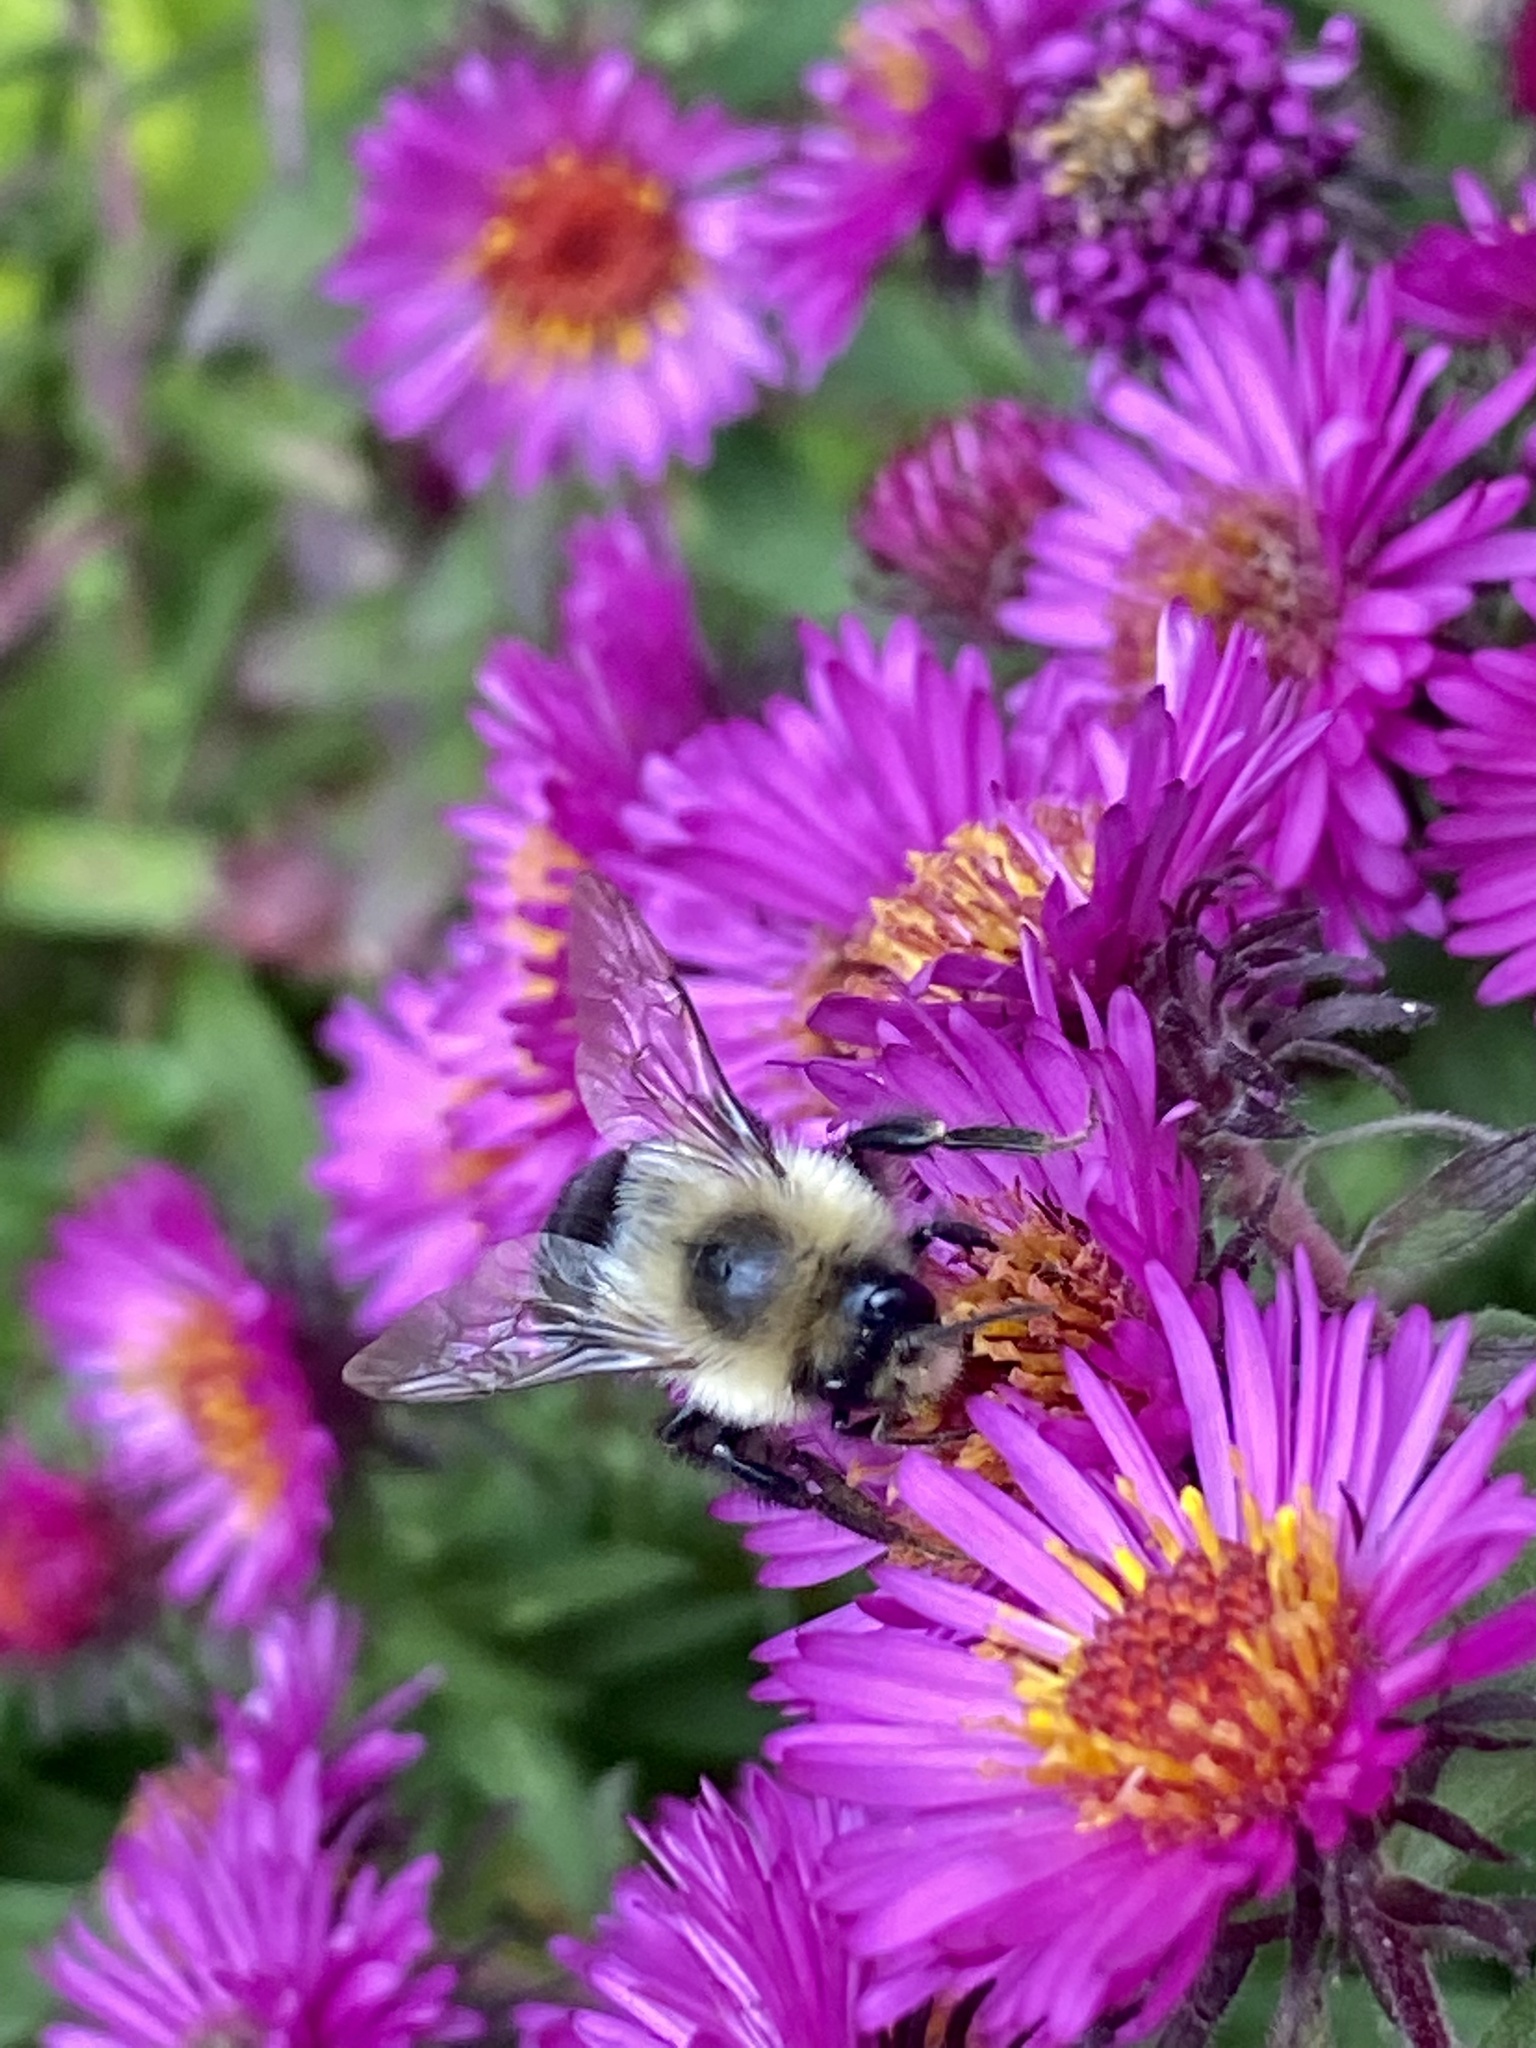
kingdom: Animalia
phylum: Arthropoda
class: Insecta
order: Hymenoptera
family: Apidae
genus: Bombus
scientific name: Bombus impatiens
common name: Common eastern bumble bee
